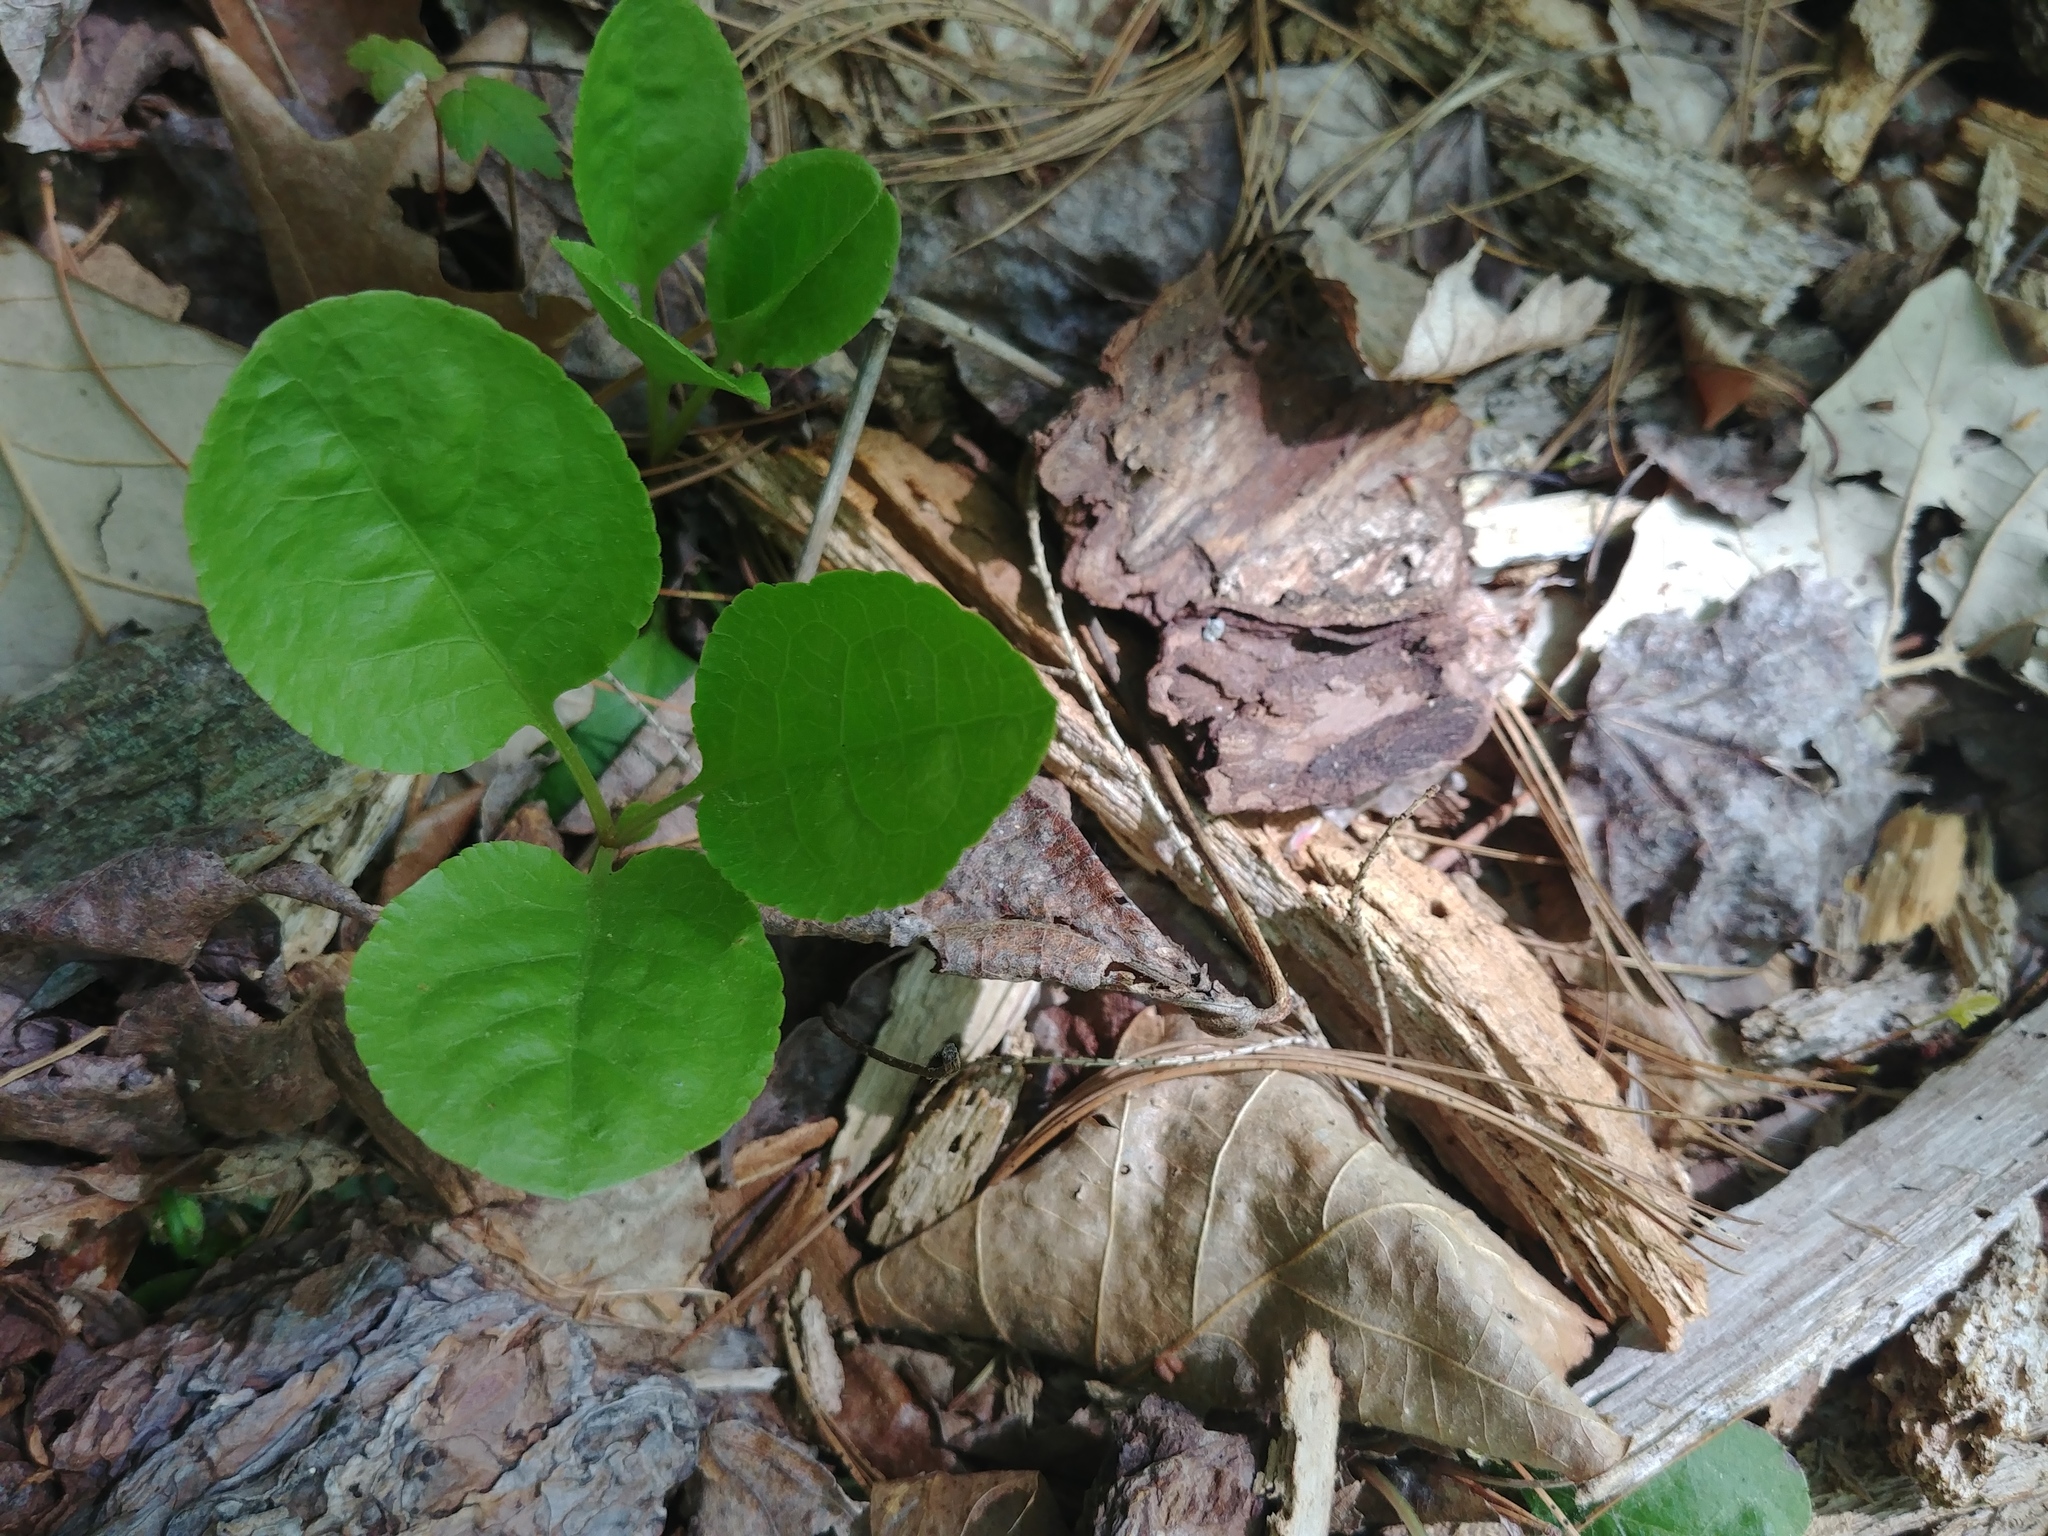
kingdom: Plantae
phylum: Tracheophyta
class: Magnoliopsida
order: Ericales
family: Ericaceae
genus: Pyrola
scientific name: Pyrola elliptica
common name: Shinleaf
